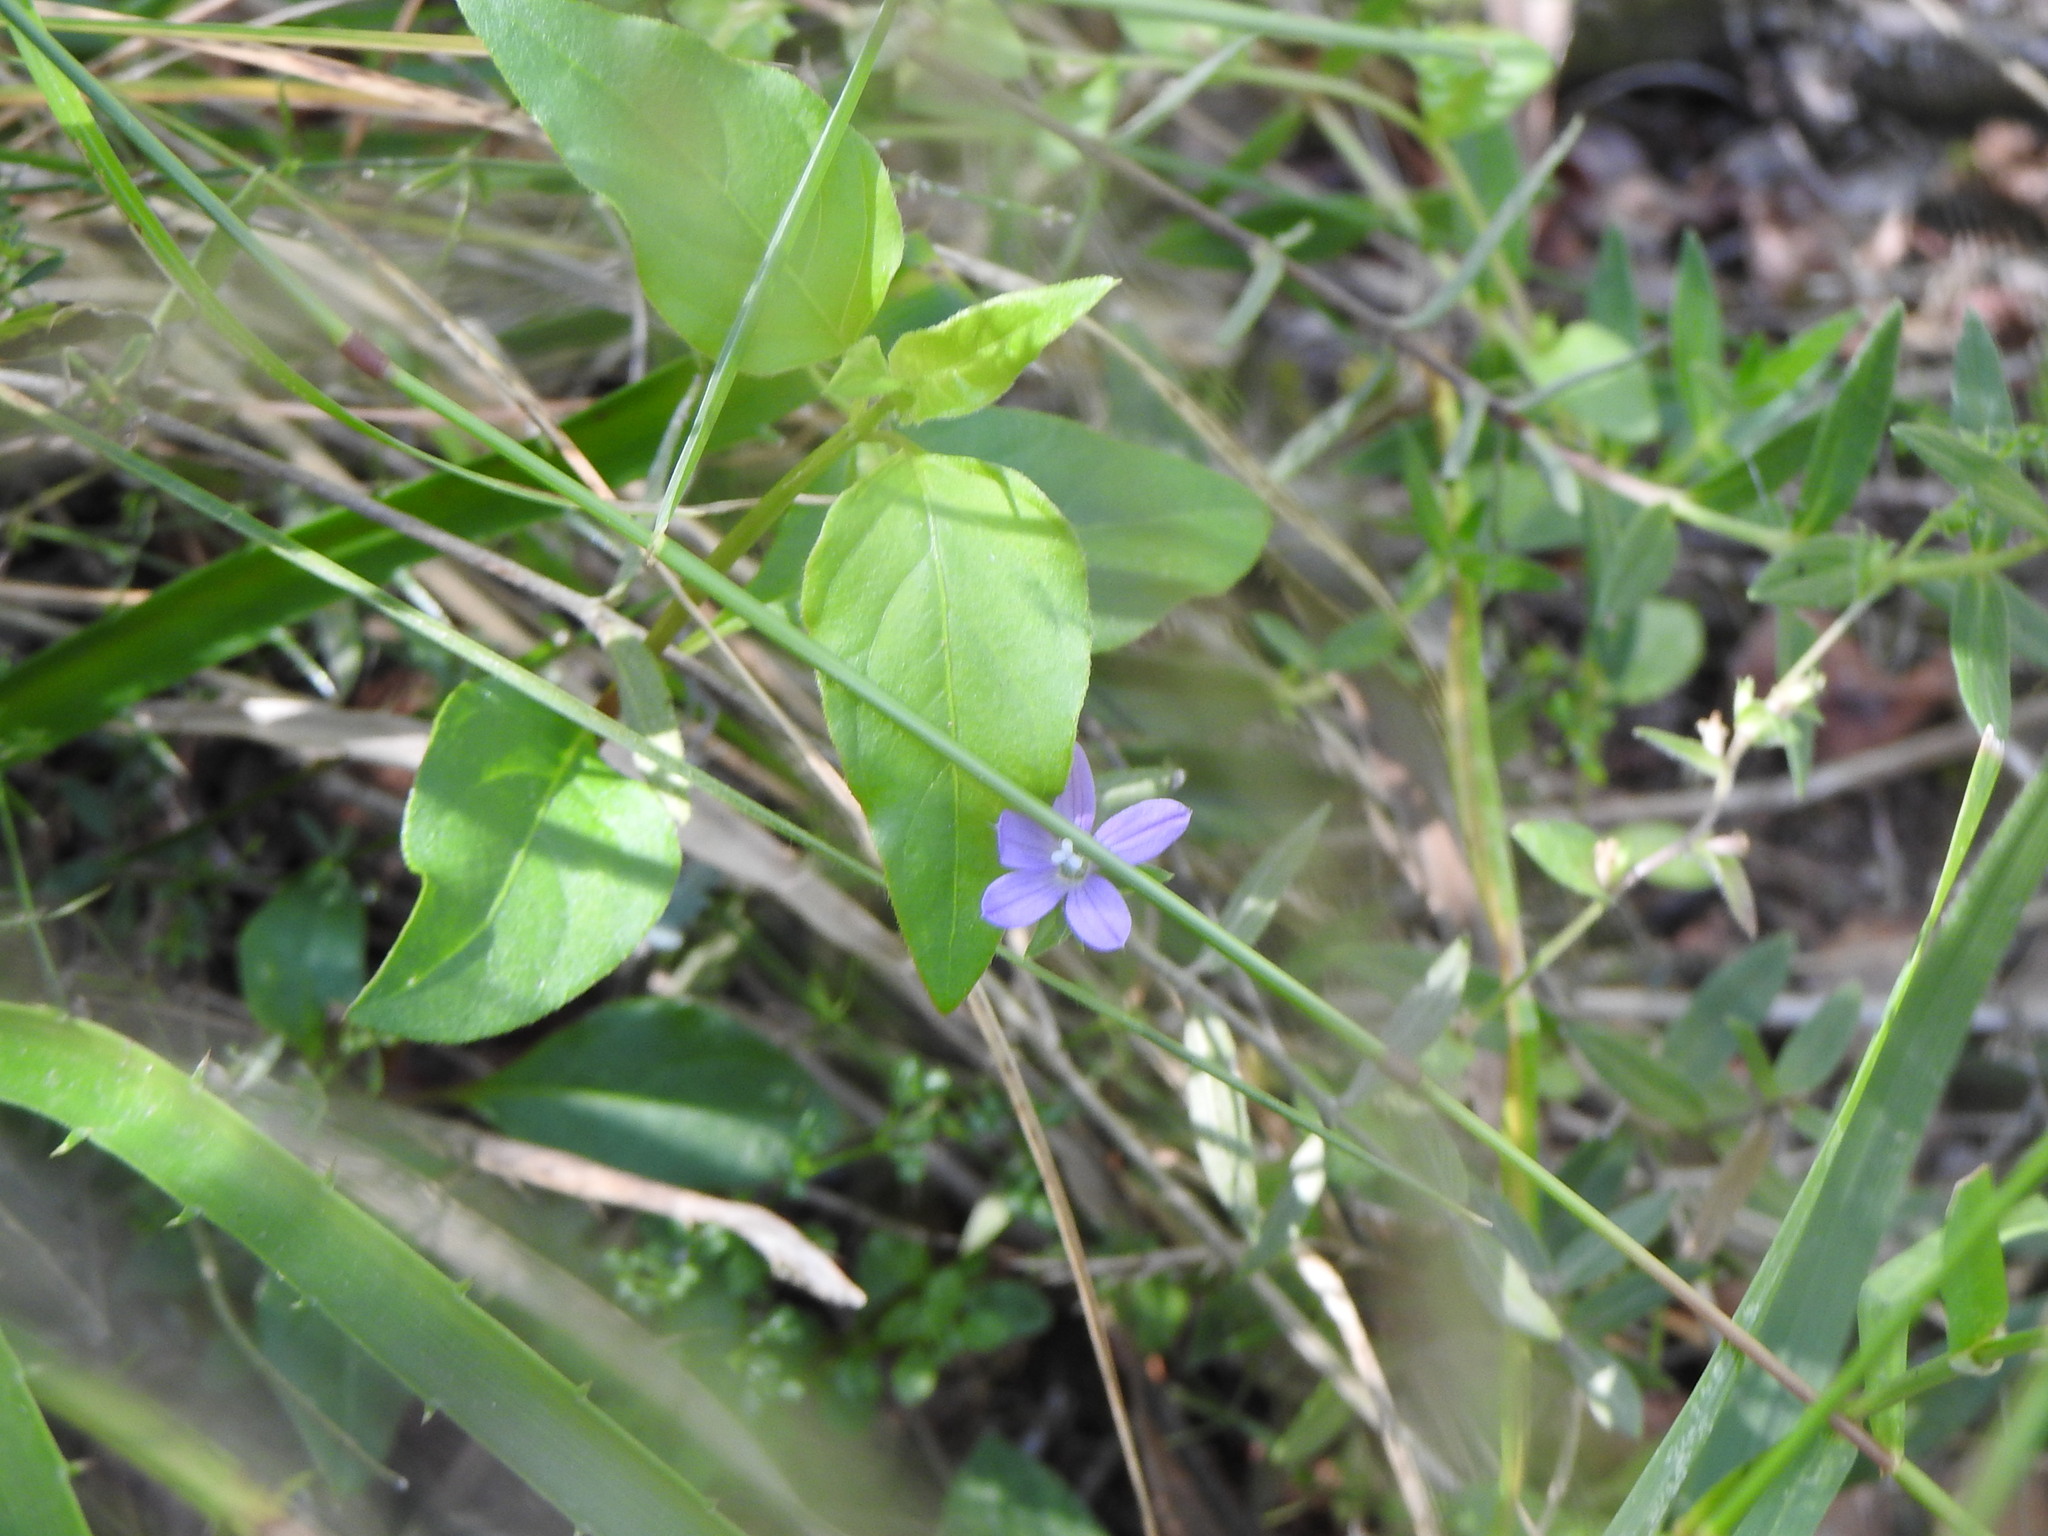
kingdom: Plantae
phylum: Tracheophyta
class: Magnoliopsida
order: Asterales
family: Campanulaceae
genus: Triodanis
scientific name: Triodanis biflora
